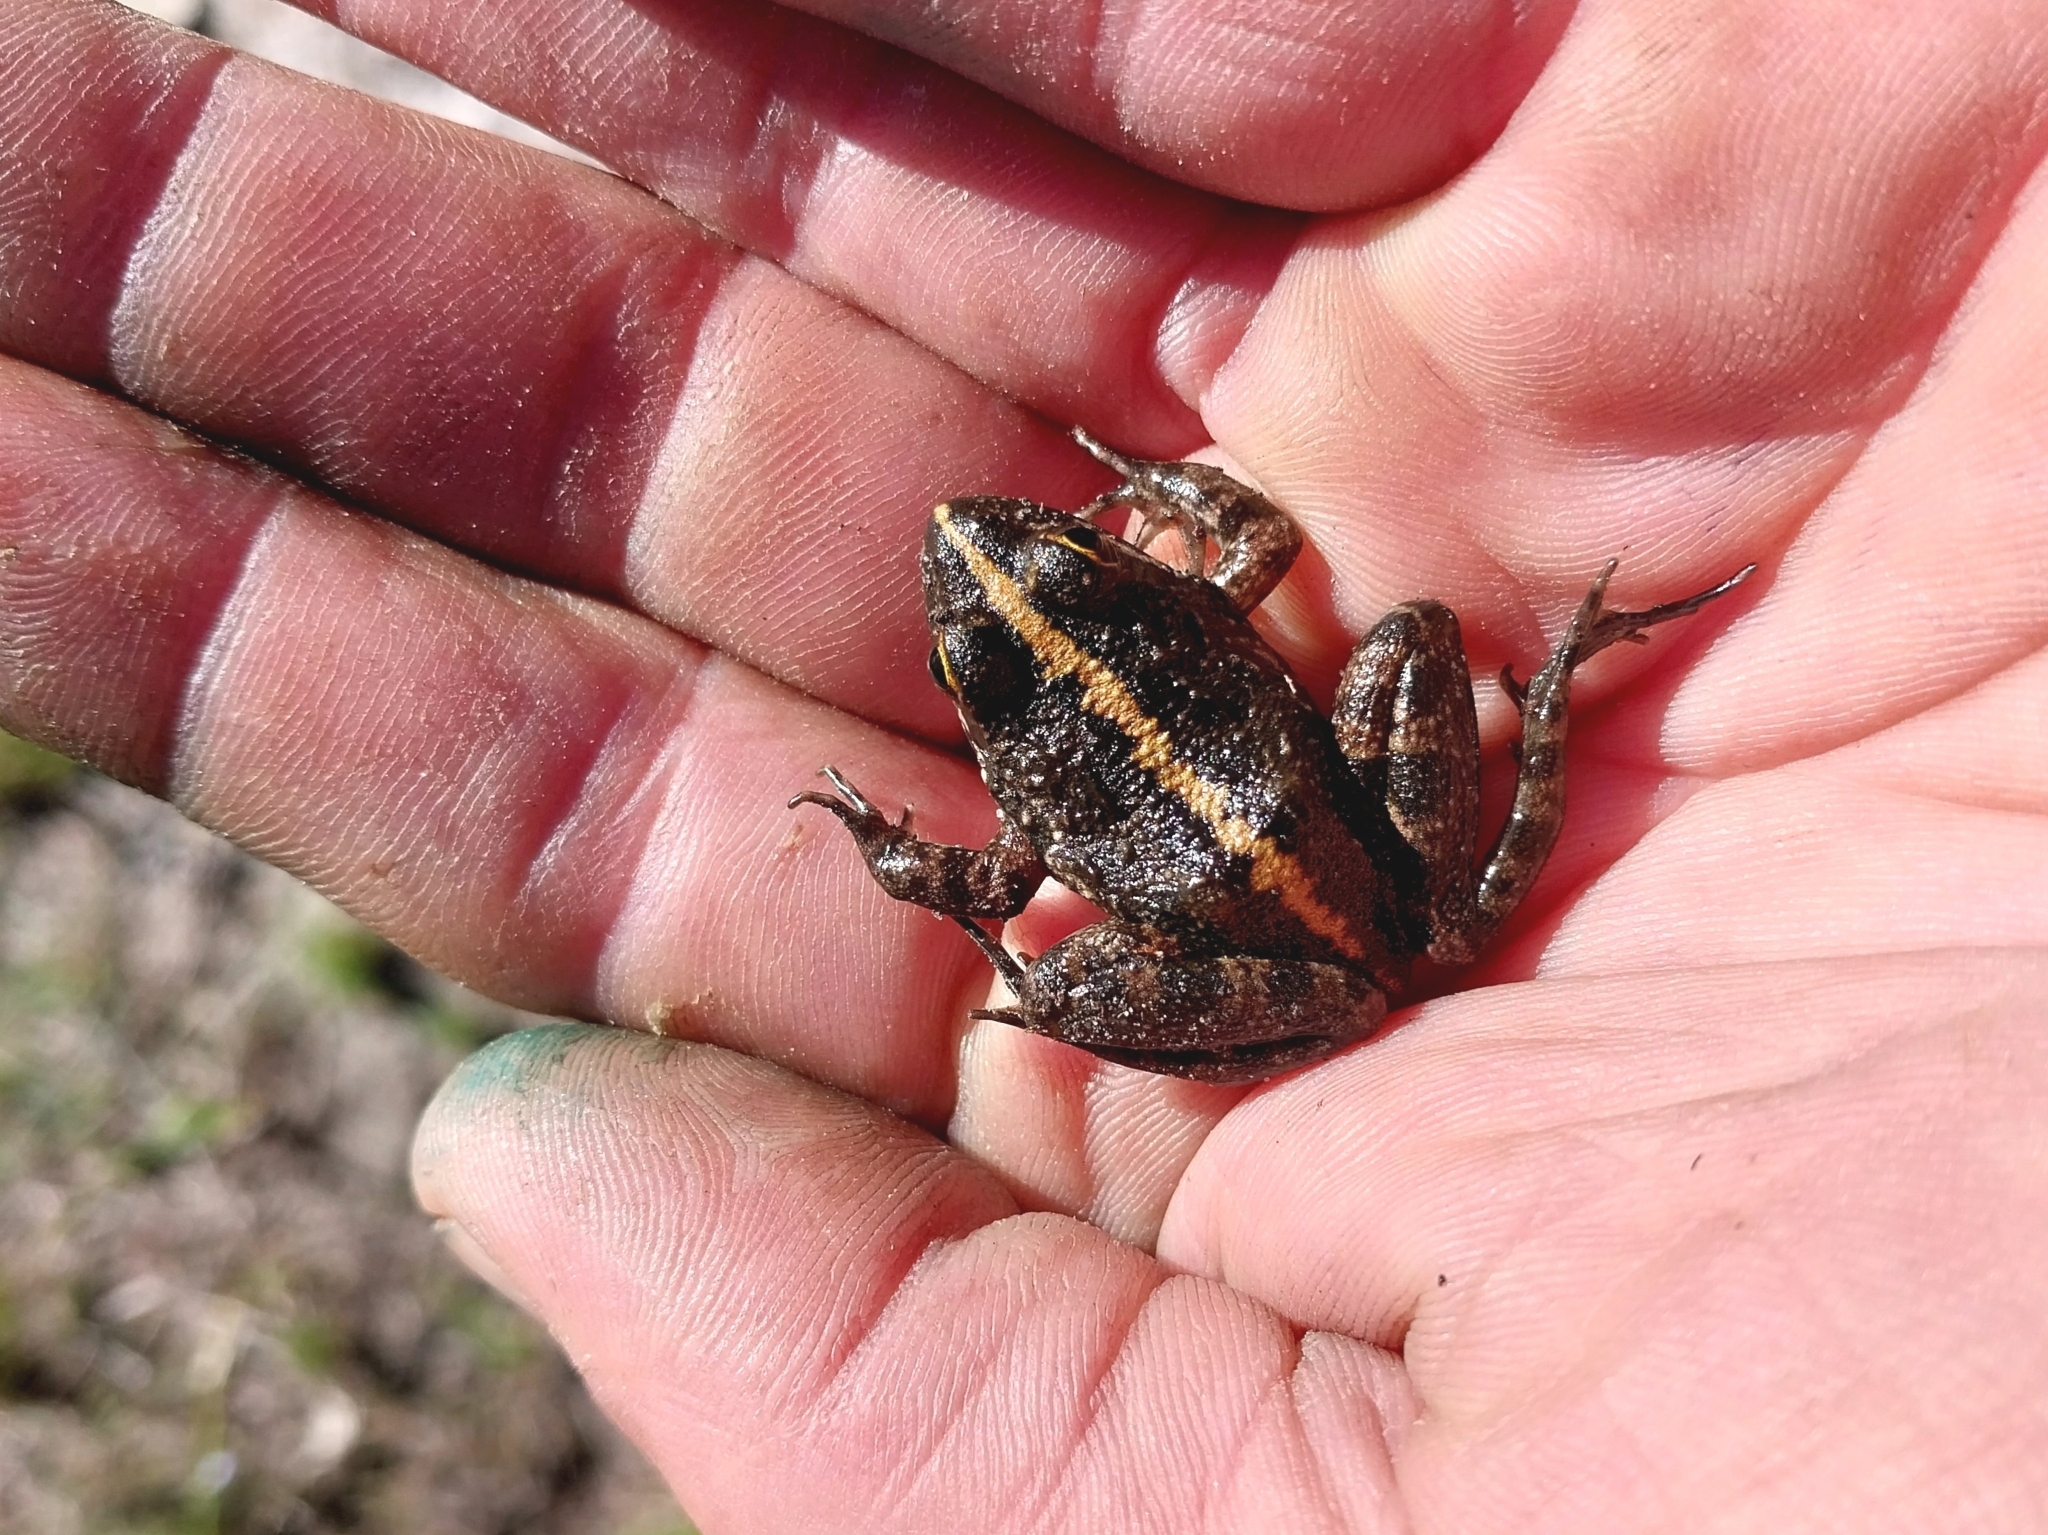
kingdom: Animalia
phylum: Chordata
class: Amphibia
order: Anura
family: Pyxicephalidae
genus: Amietia
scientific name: Amietia fuscigula
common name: Cape rana
